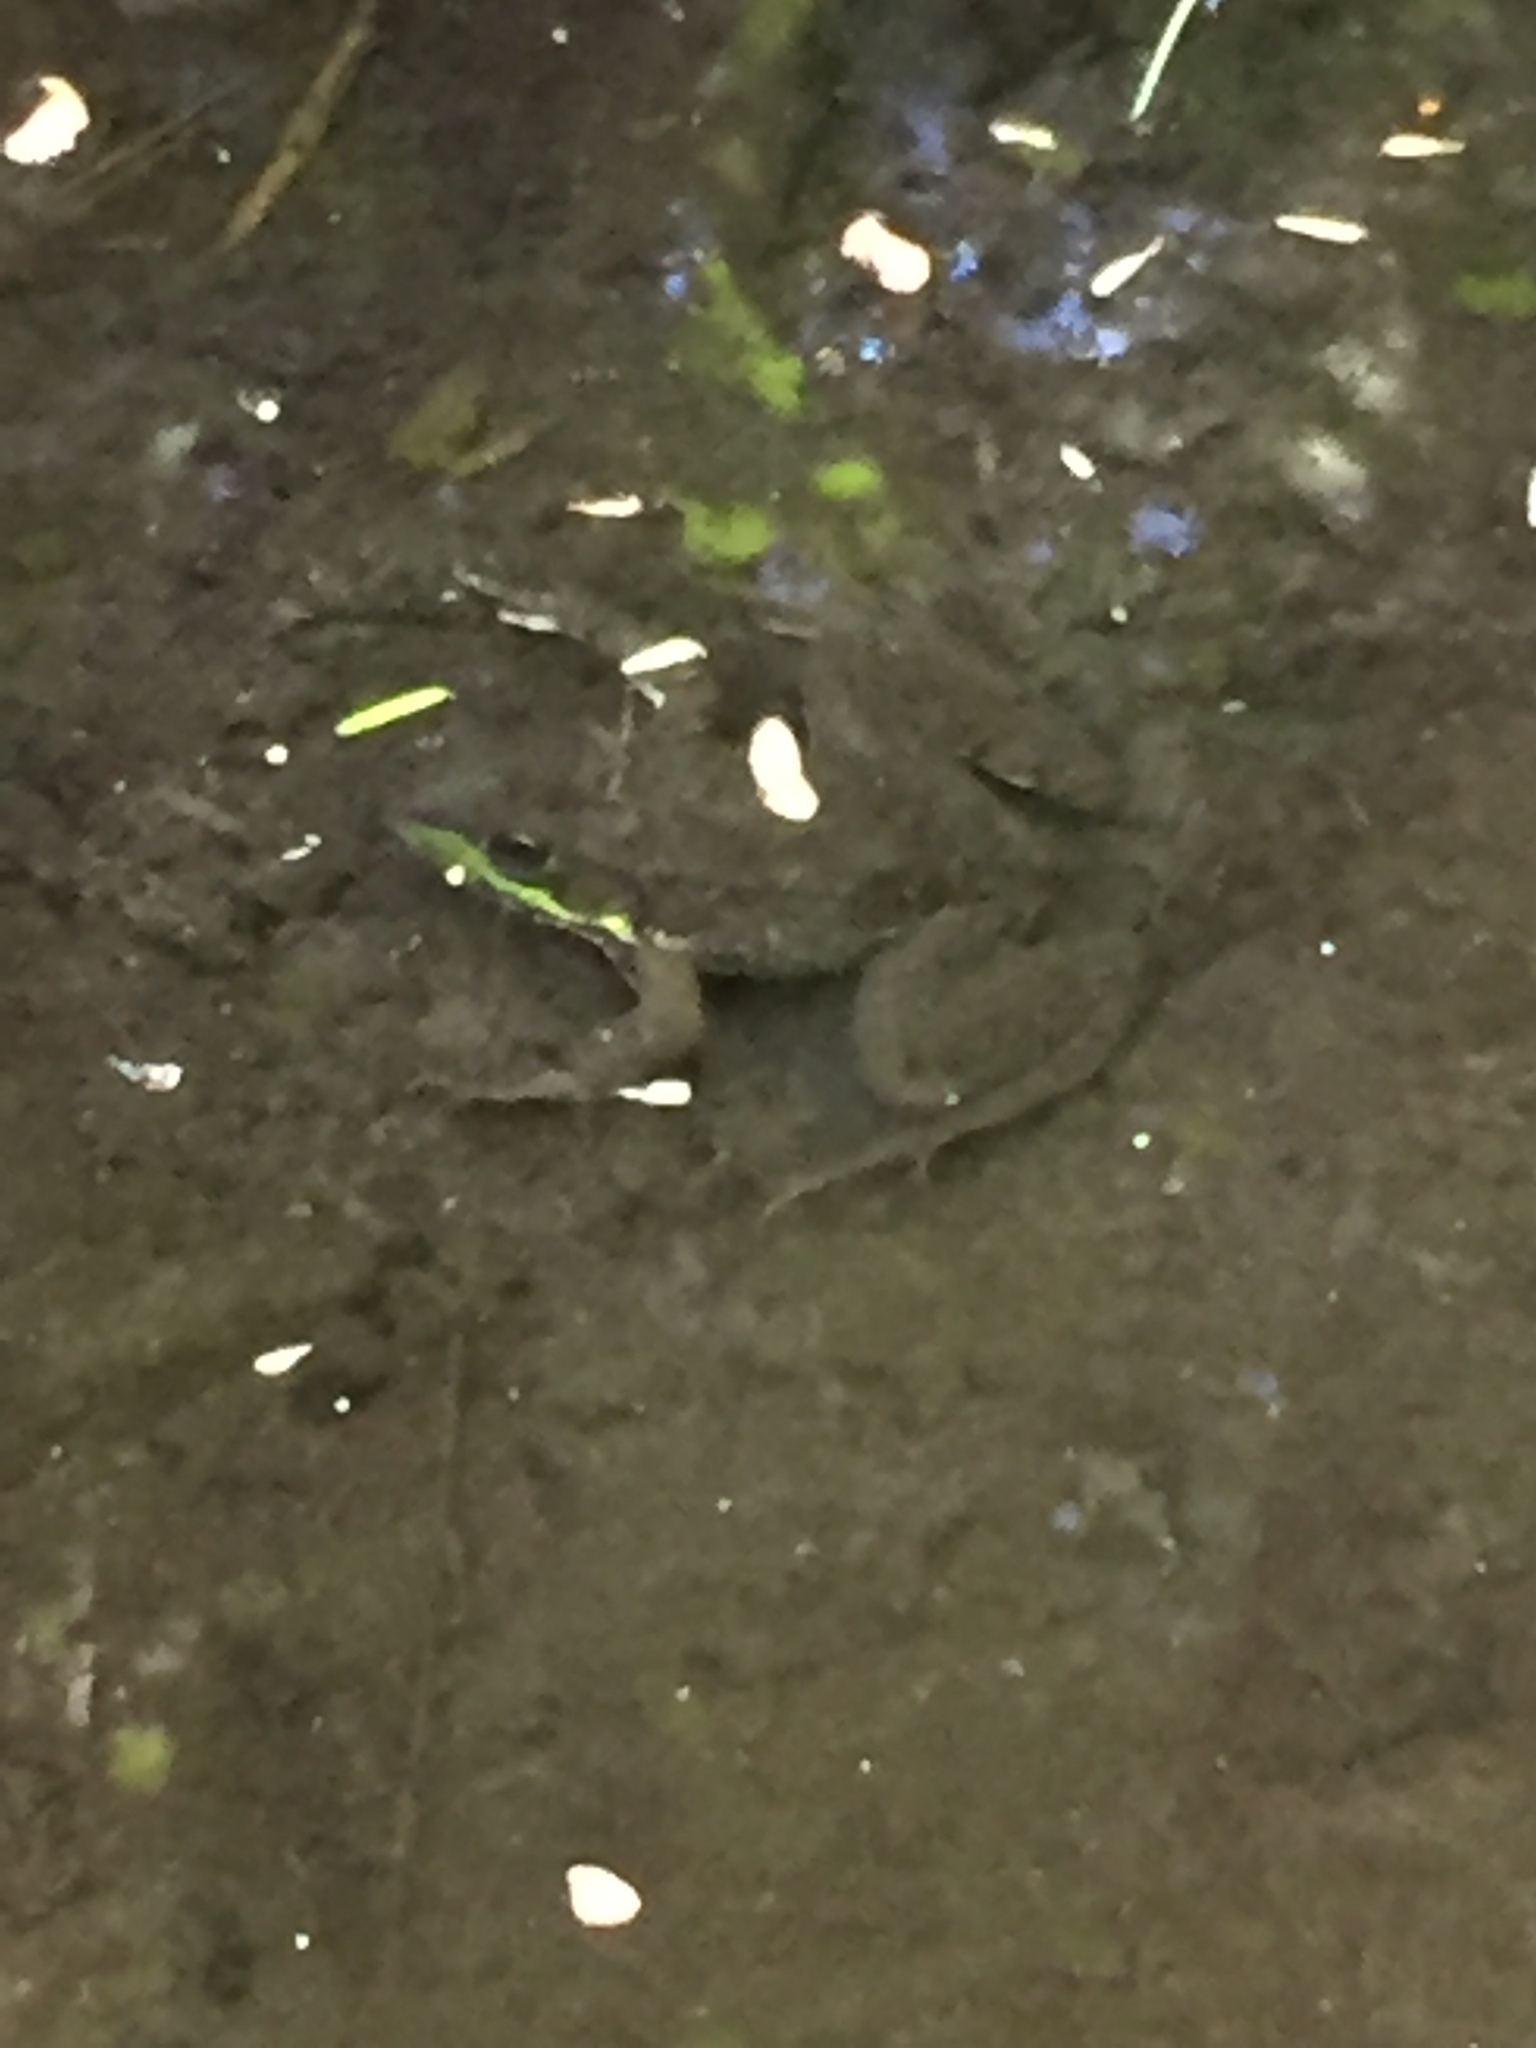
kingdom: Animalia
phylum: Chordata
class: Amphibia
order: Anura
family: Ranidae
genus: Lithobates
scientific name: Lithobates clamitans
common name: Green frog
